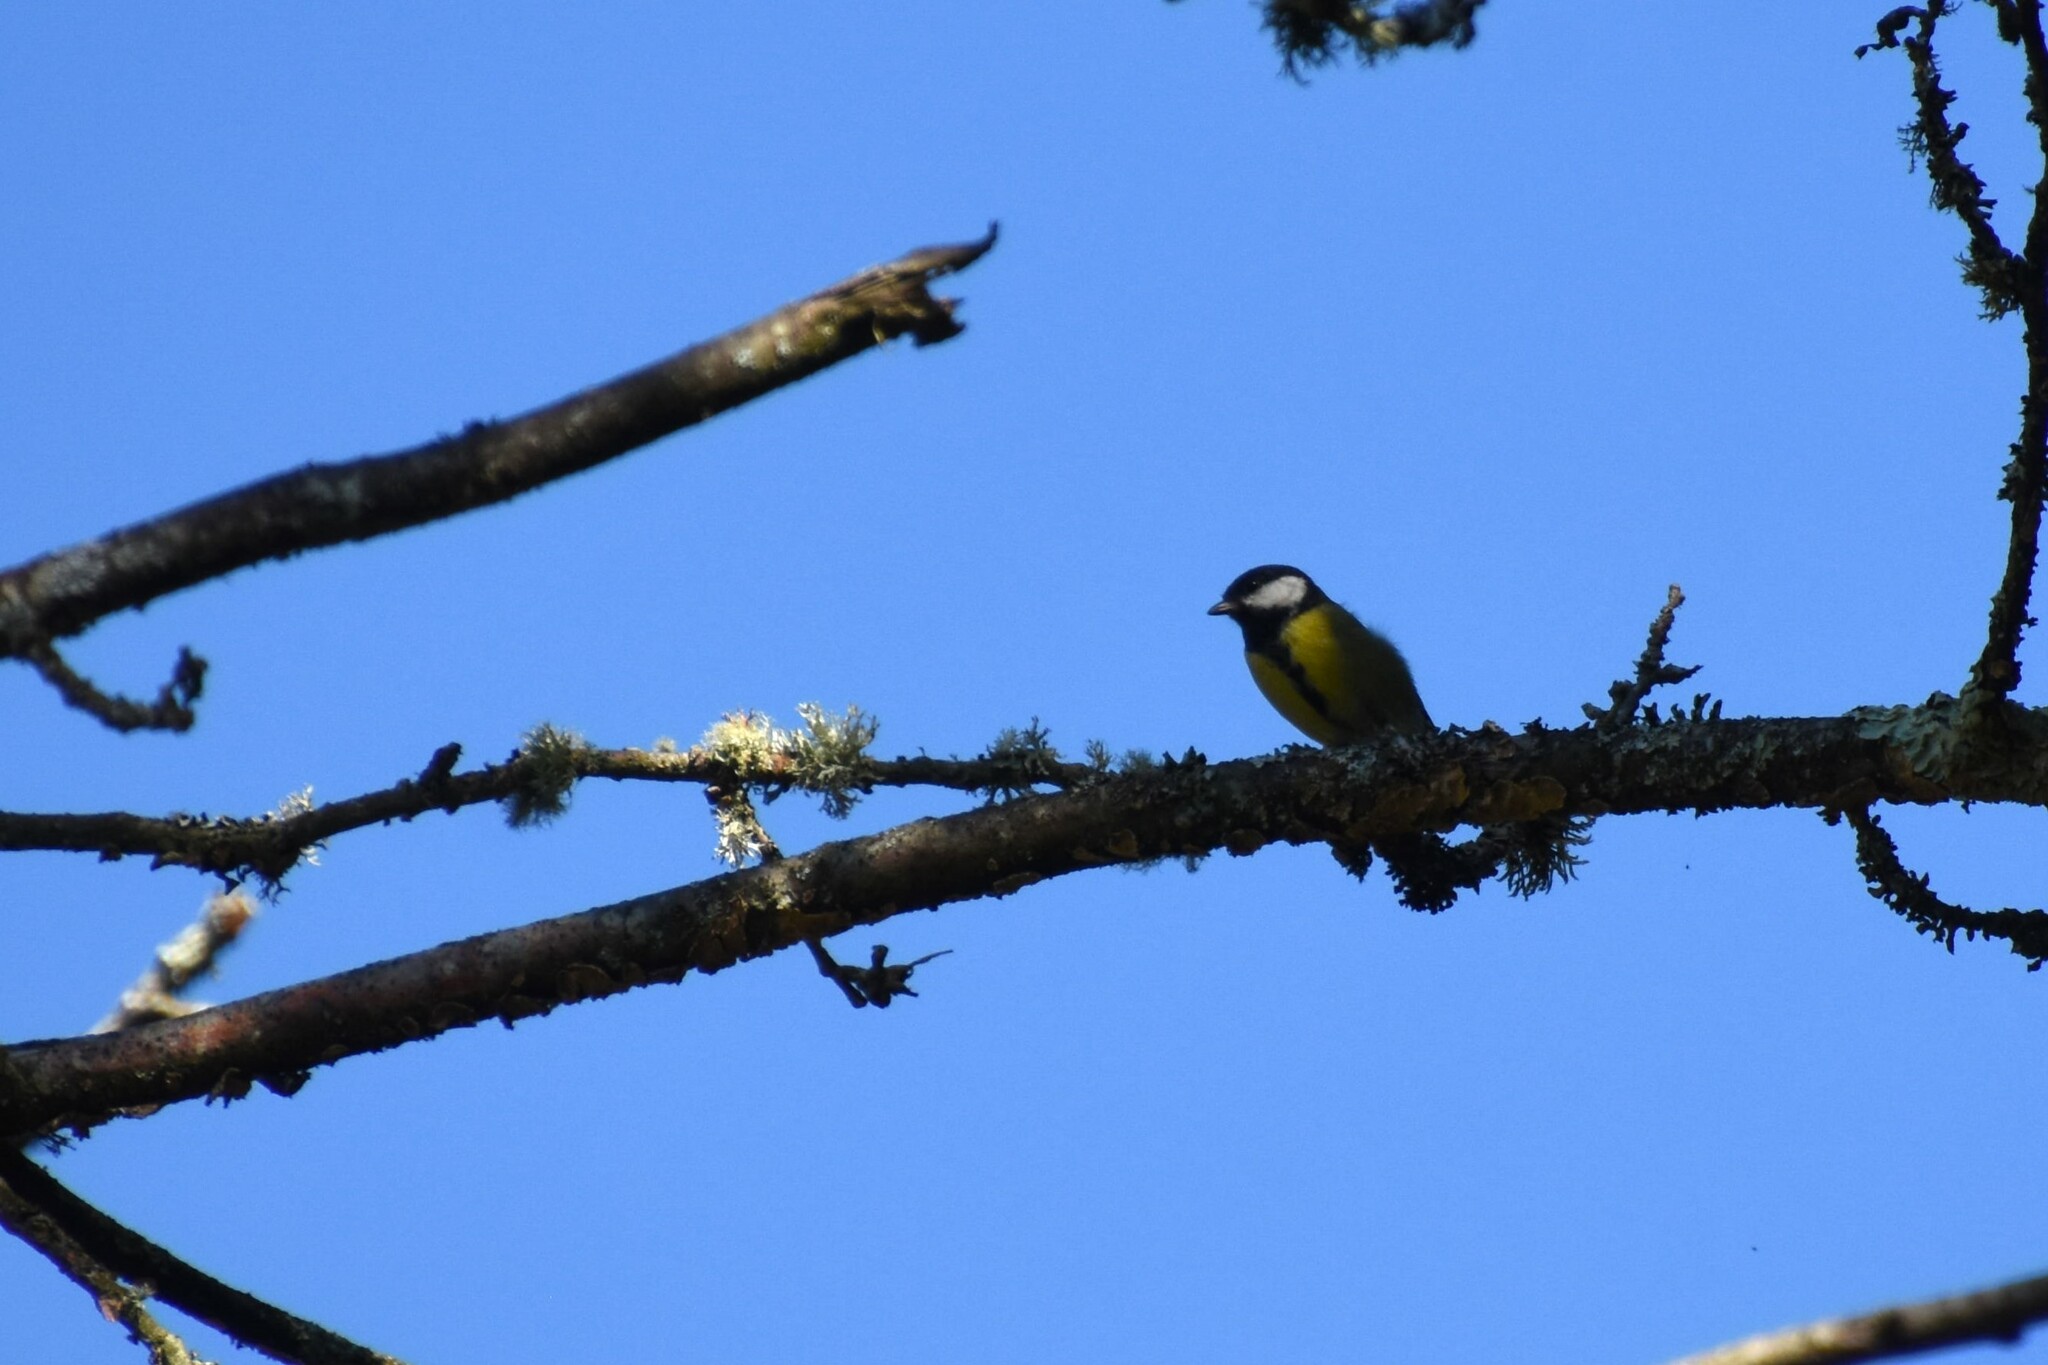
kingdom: Animalia
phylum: Chordata
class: Aves
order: Passeriformes
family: Paridae
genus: Parus
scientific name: Parus major
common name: Great tit
